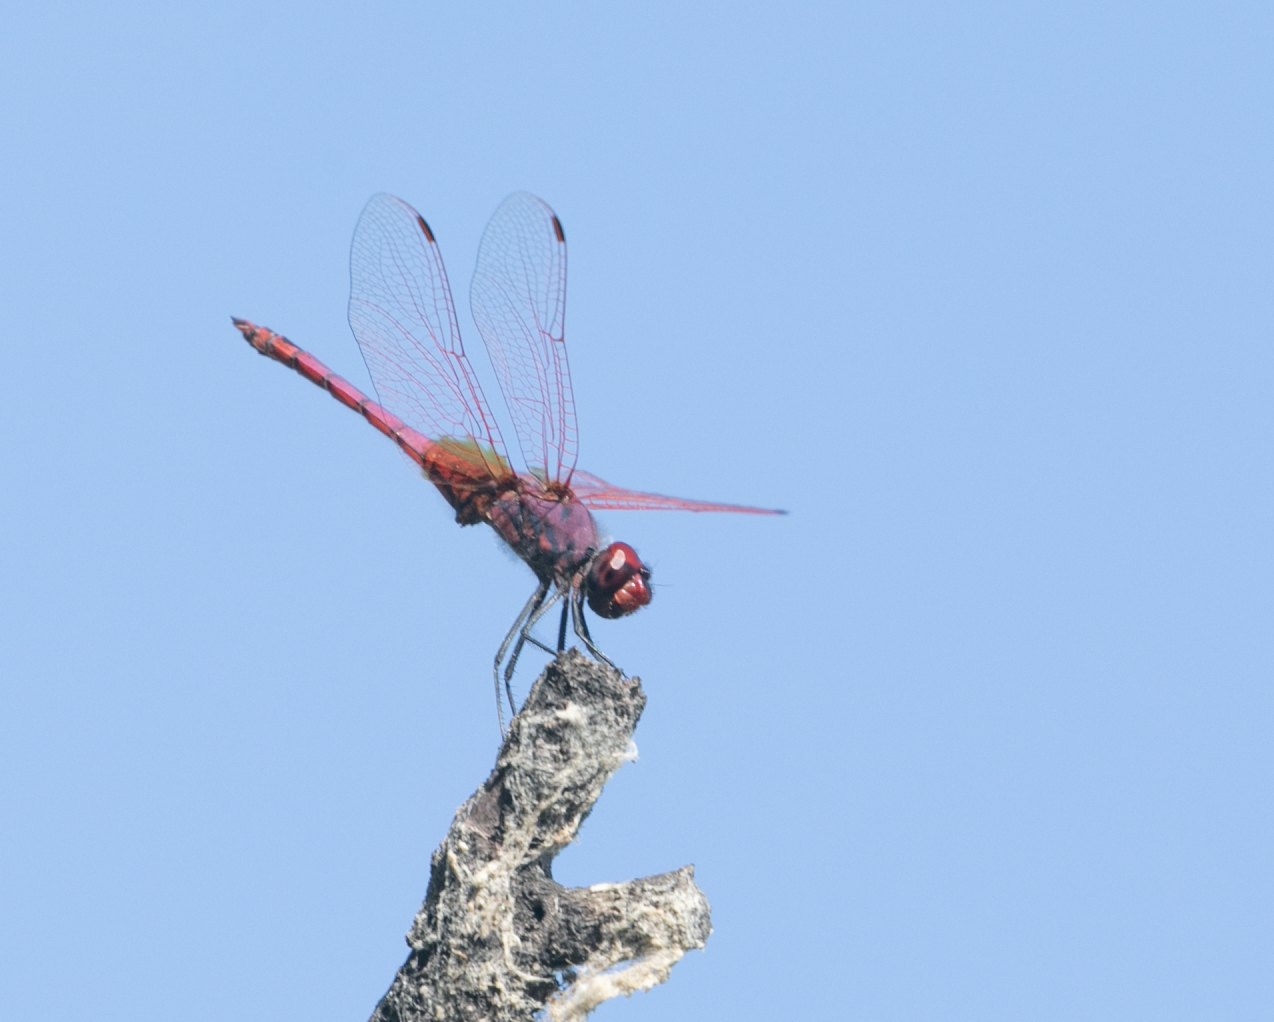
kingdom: Animalia
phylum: Arthropoda
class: Insecta
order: Odonata
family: Libellulidae
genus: Trithemis
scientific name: Trithemis annulata
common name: Violet dropwing
